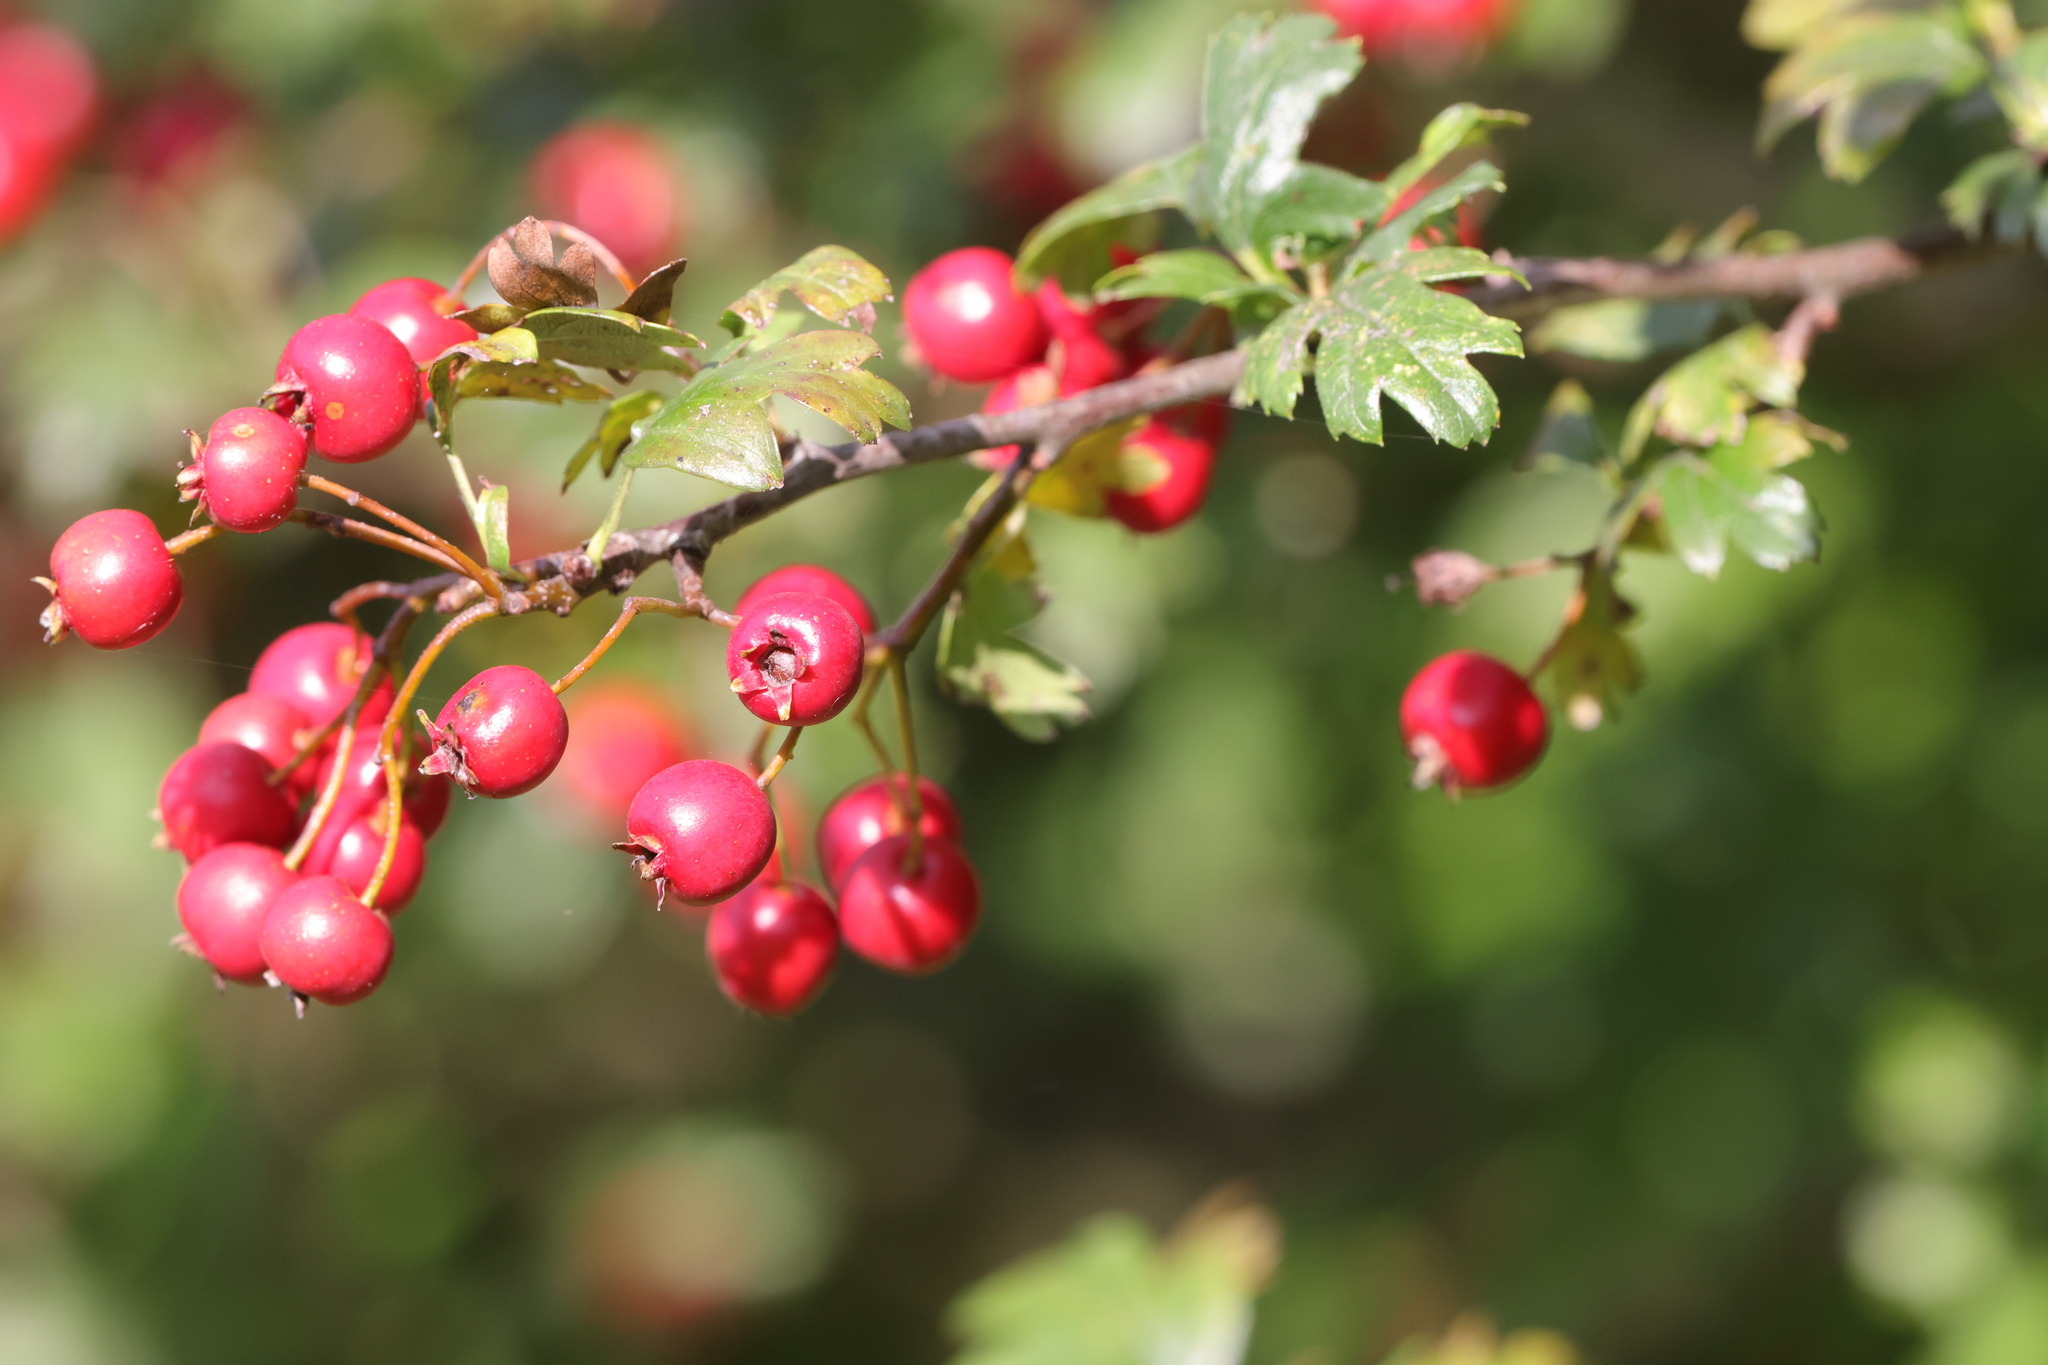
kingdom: Plantae
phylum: Tracheophyta
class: Magnoliopsida
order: Rosales
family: Rosaceae
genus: Crataegus
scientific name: Crataegus monogyna
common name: Hawthorn
